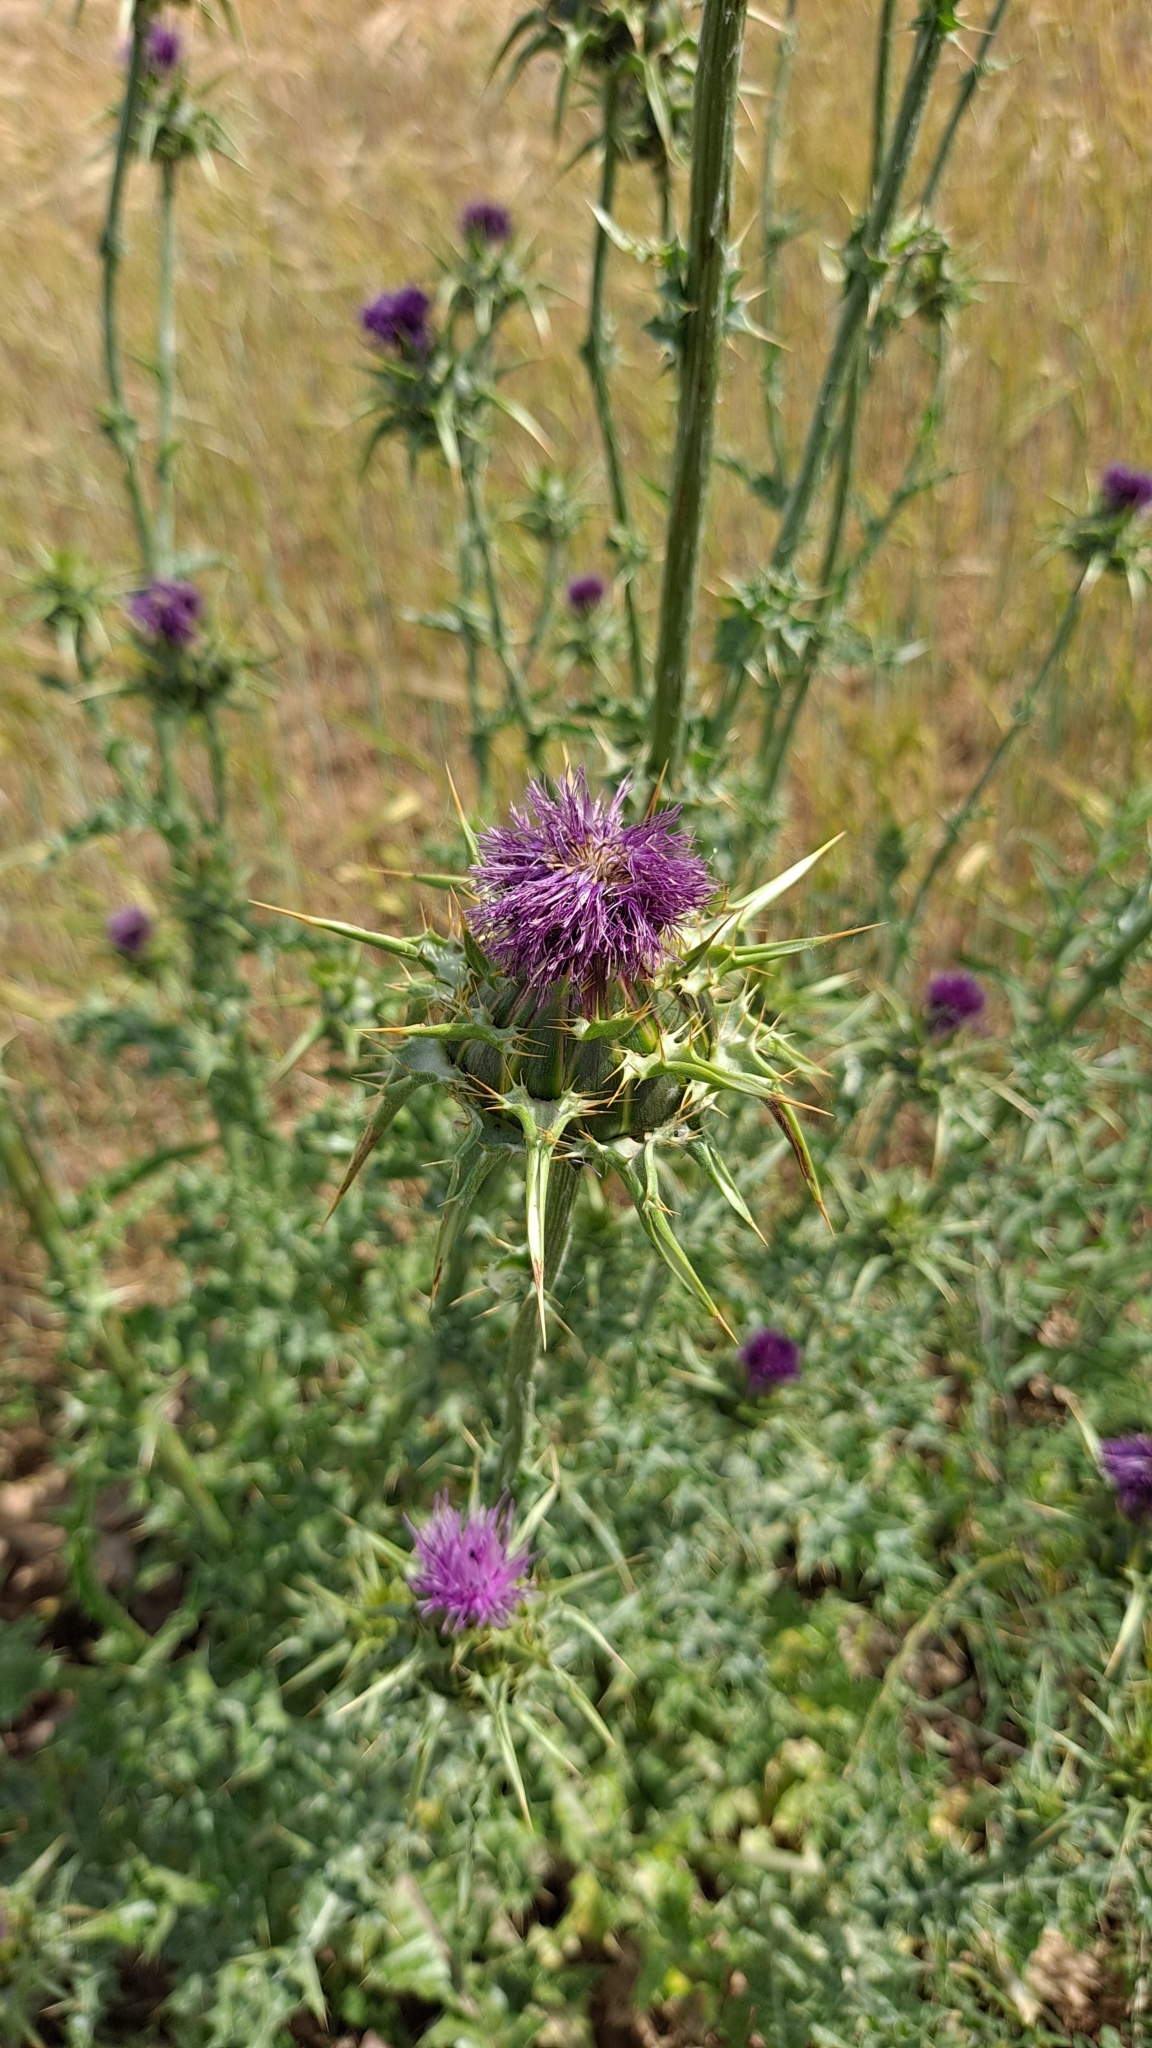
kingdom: Plantae
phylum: Tracheophyta
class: Magnoliopsida
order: Asterales
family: Asteraceae
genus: Silybum
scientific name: Silybum marianum
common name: Milk thistle
